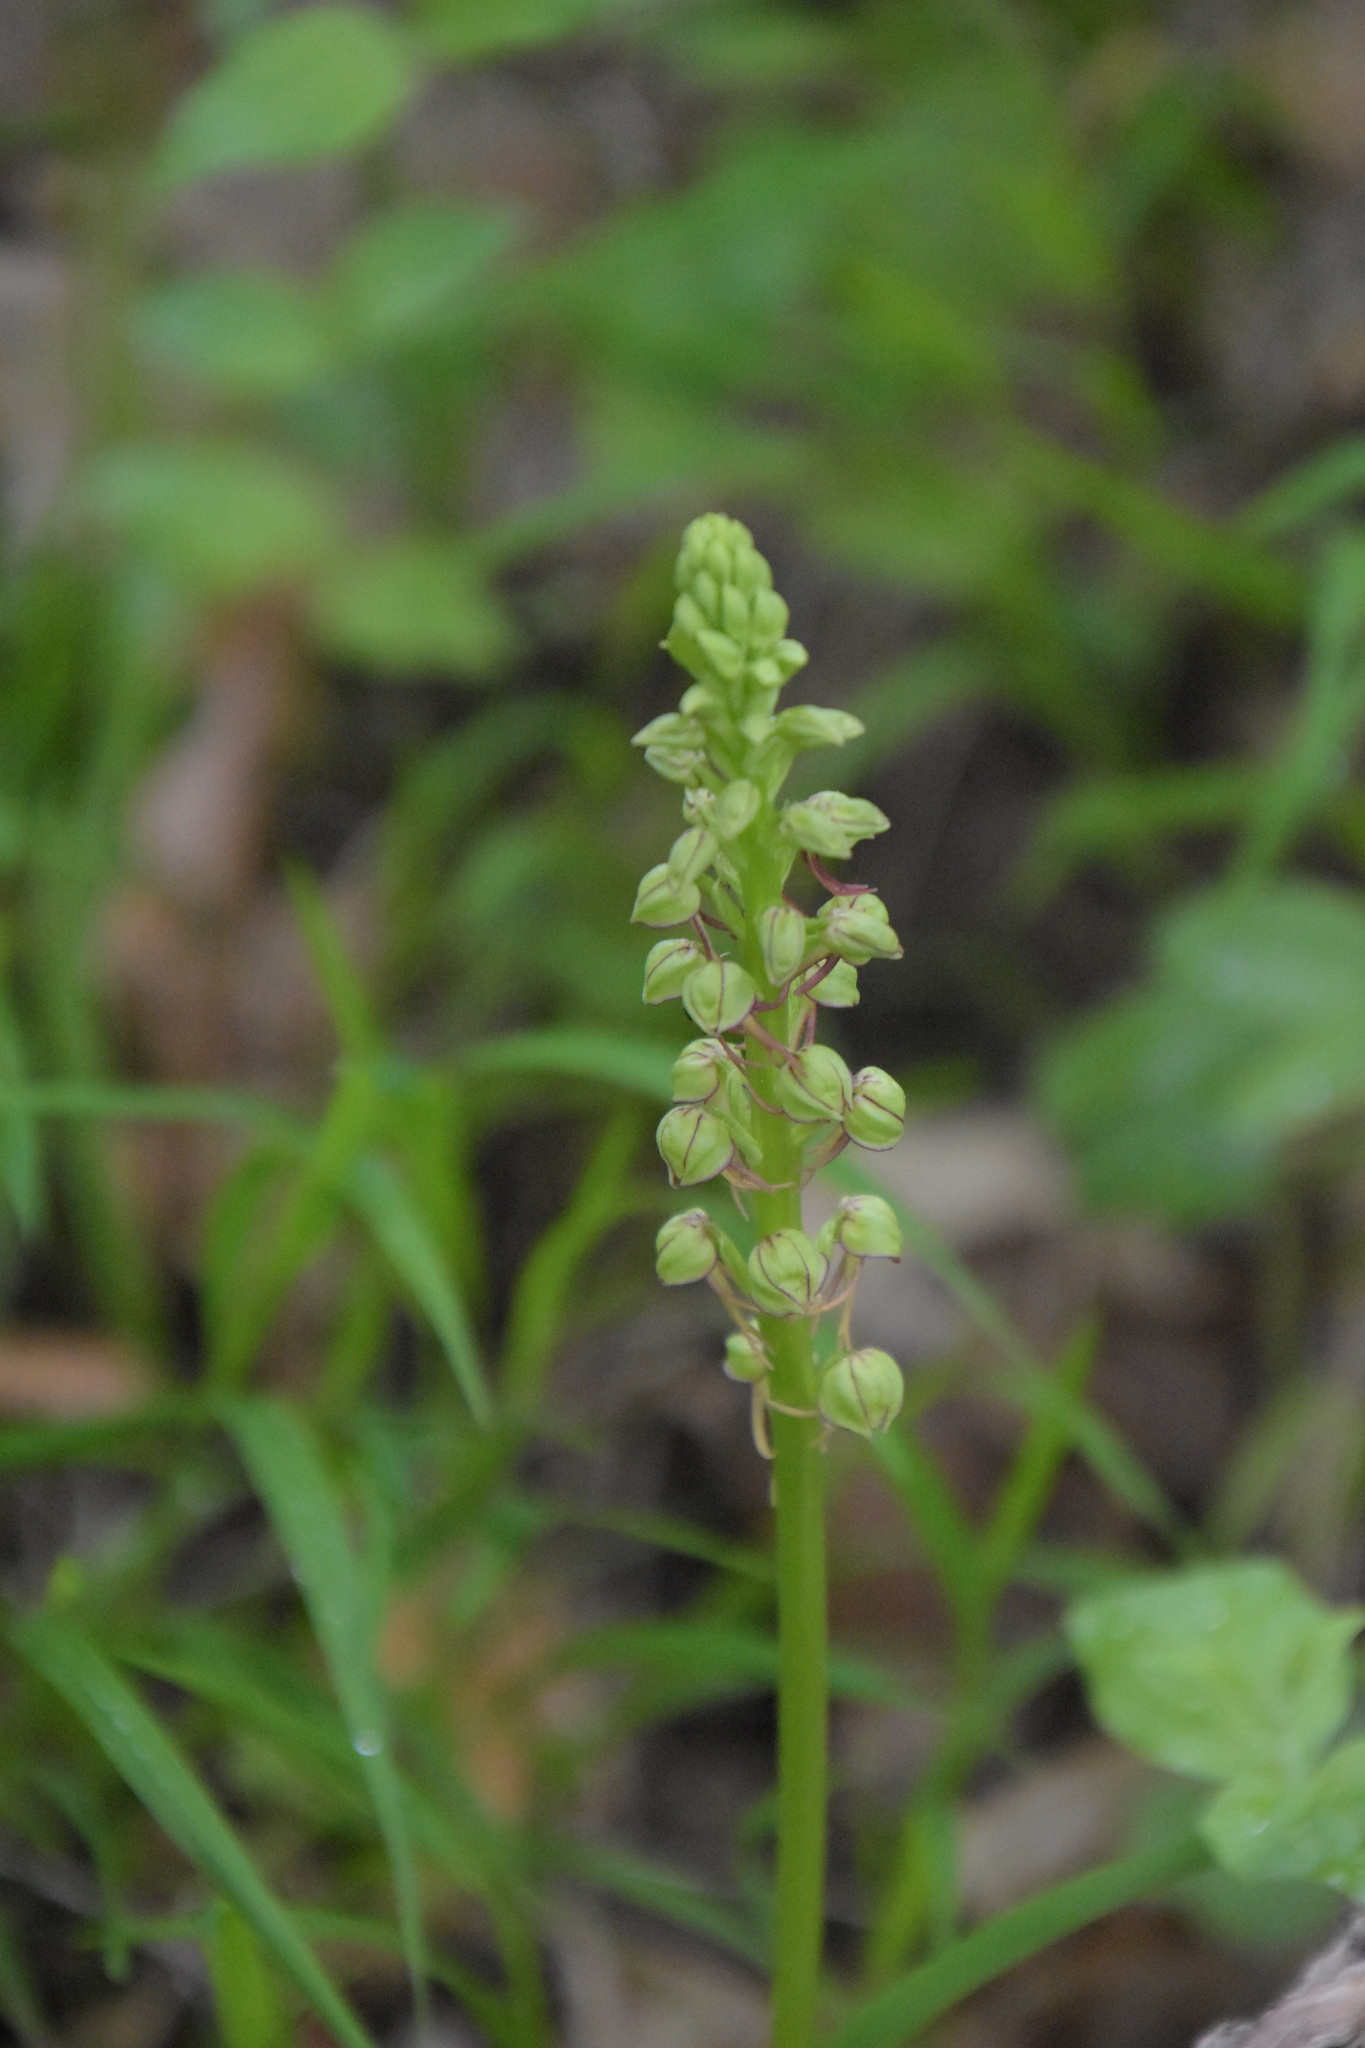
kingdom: Plantae
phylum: Tracheophyta
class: Liliopsida
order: Asparagales
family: Orchidaceae
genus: Orchis
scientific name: Orchis anthropophora
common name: Man orchid
